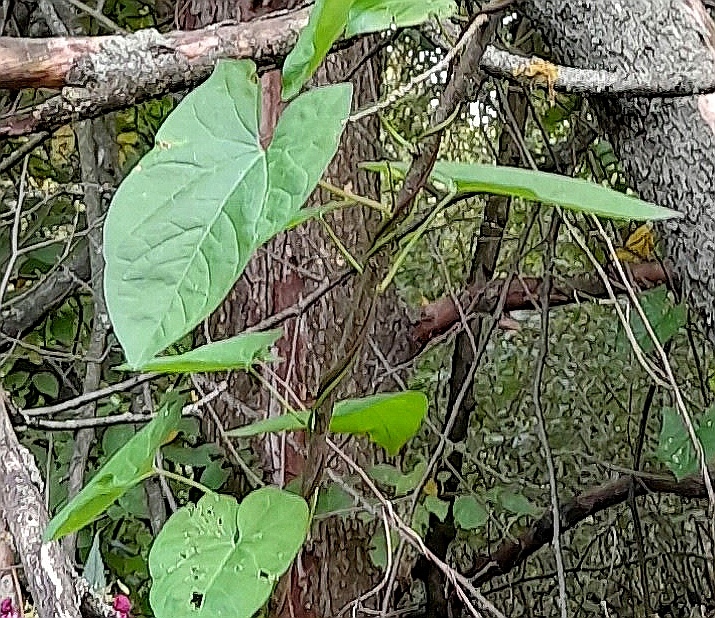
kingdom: Plantae
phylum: Tracheophyta
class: Magnoliopsida
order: Solanales
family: Convolvulaceae
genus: Calystegia
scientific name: Calystegia sepium
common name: Hedge bindweed
